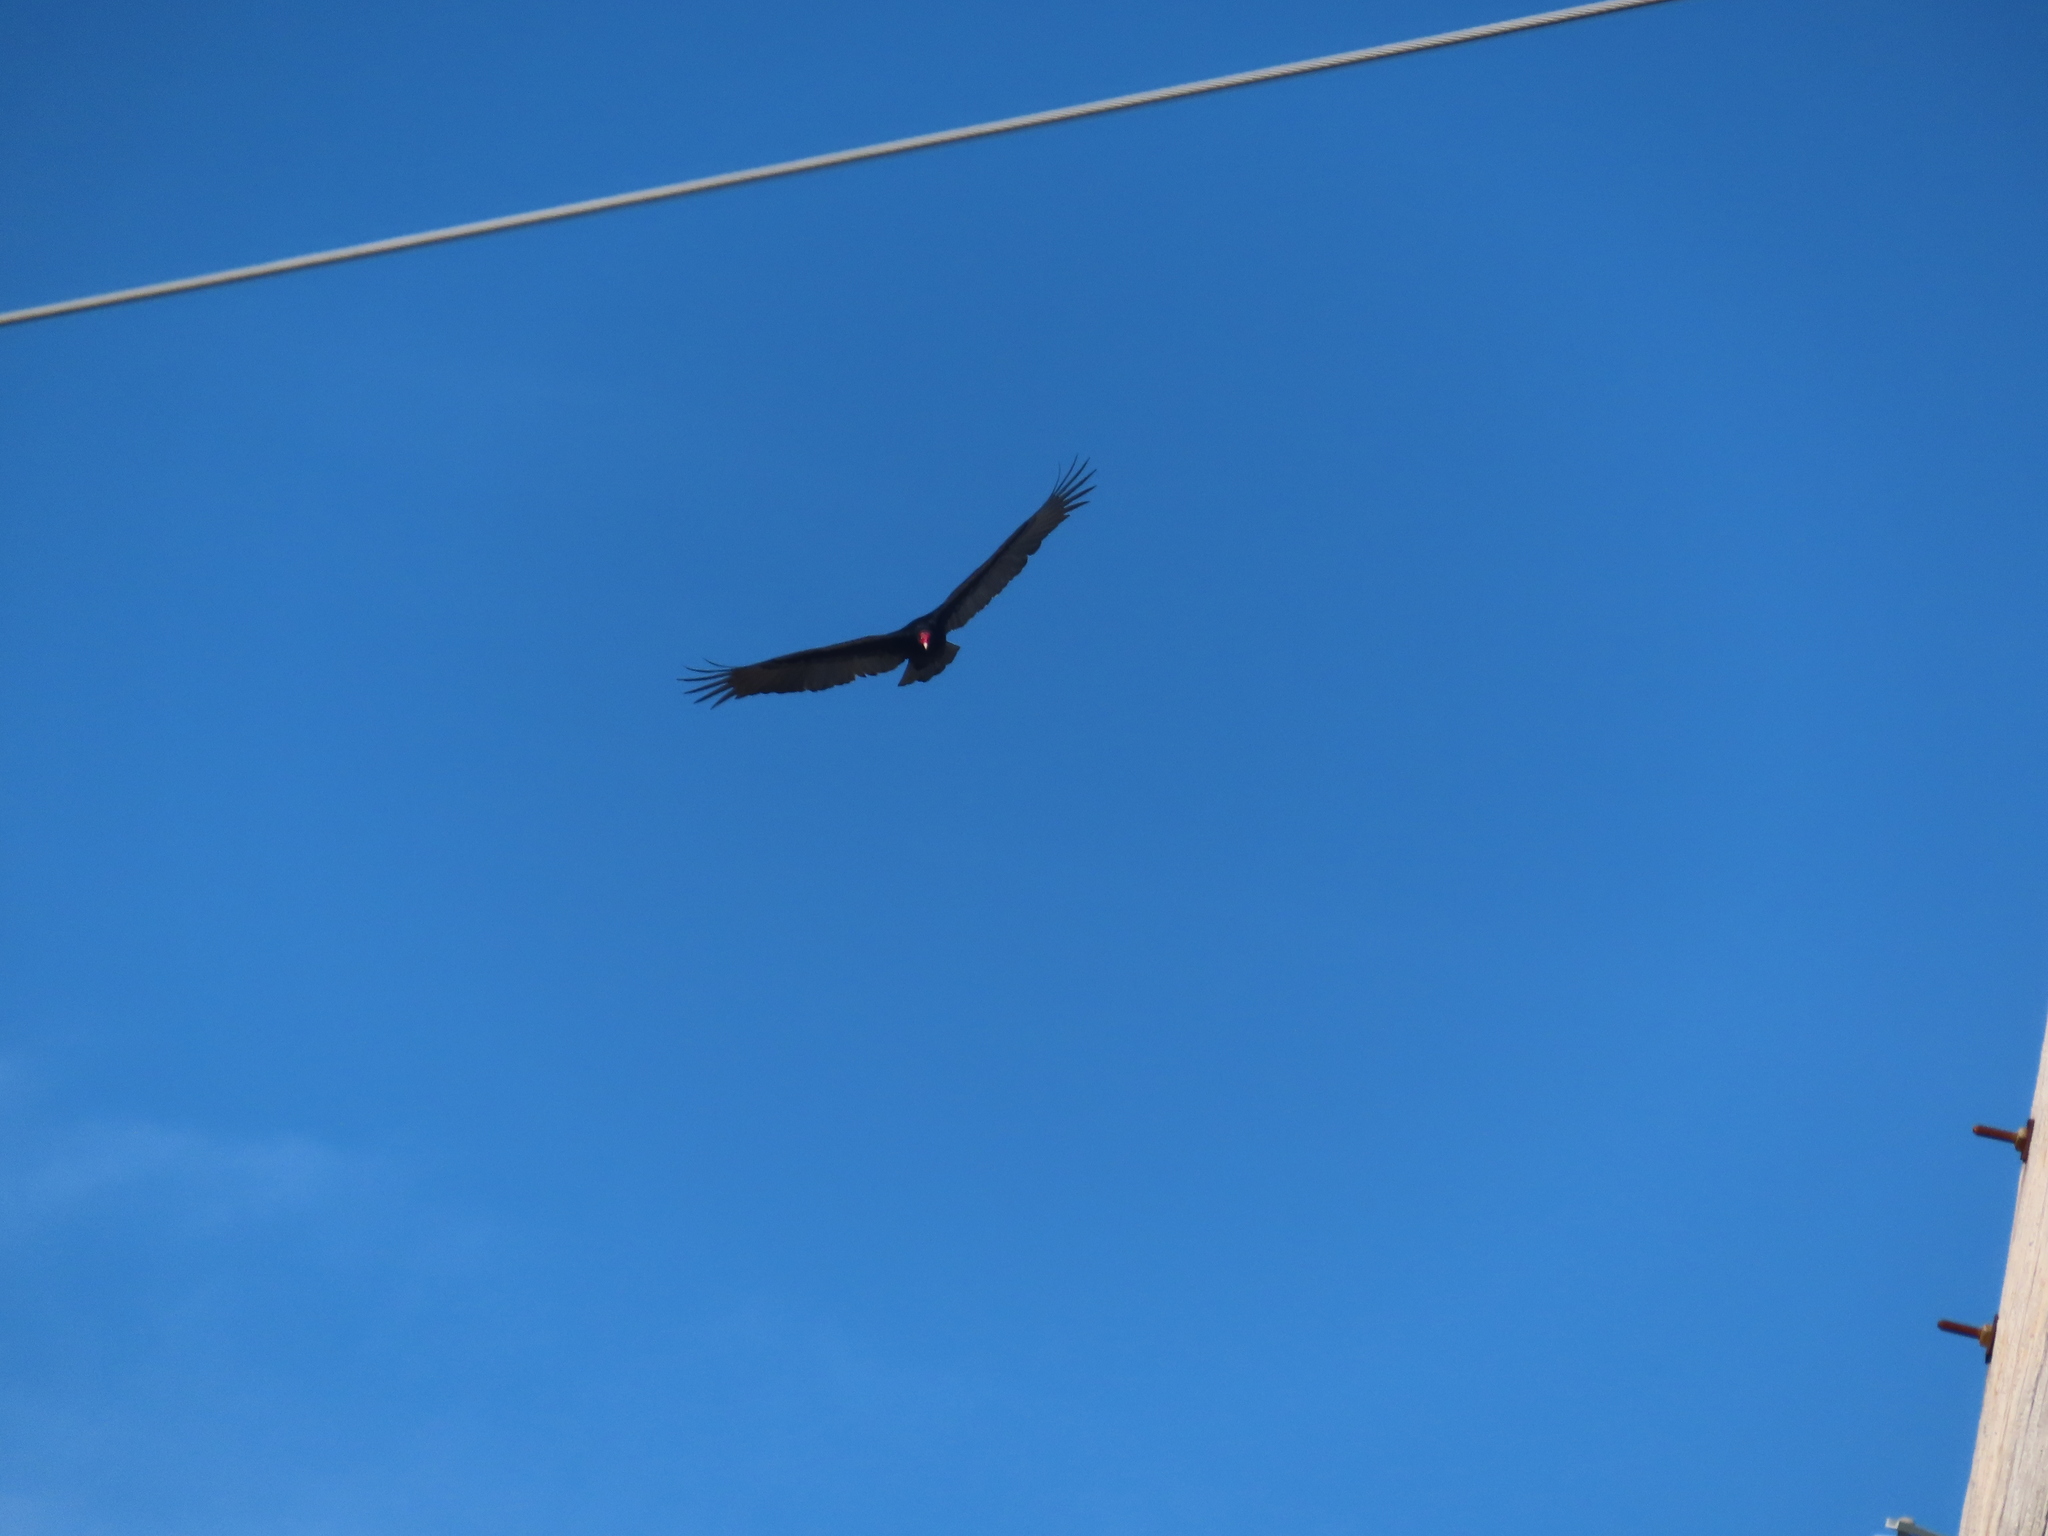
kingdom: Animalia
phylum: Chordata
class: Aves
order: Accipitriformes
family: Cathartidae
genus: Cathartes
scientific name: Cathartes aura
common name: Turkey vulture
